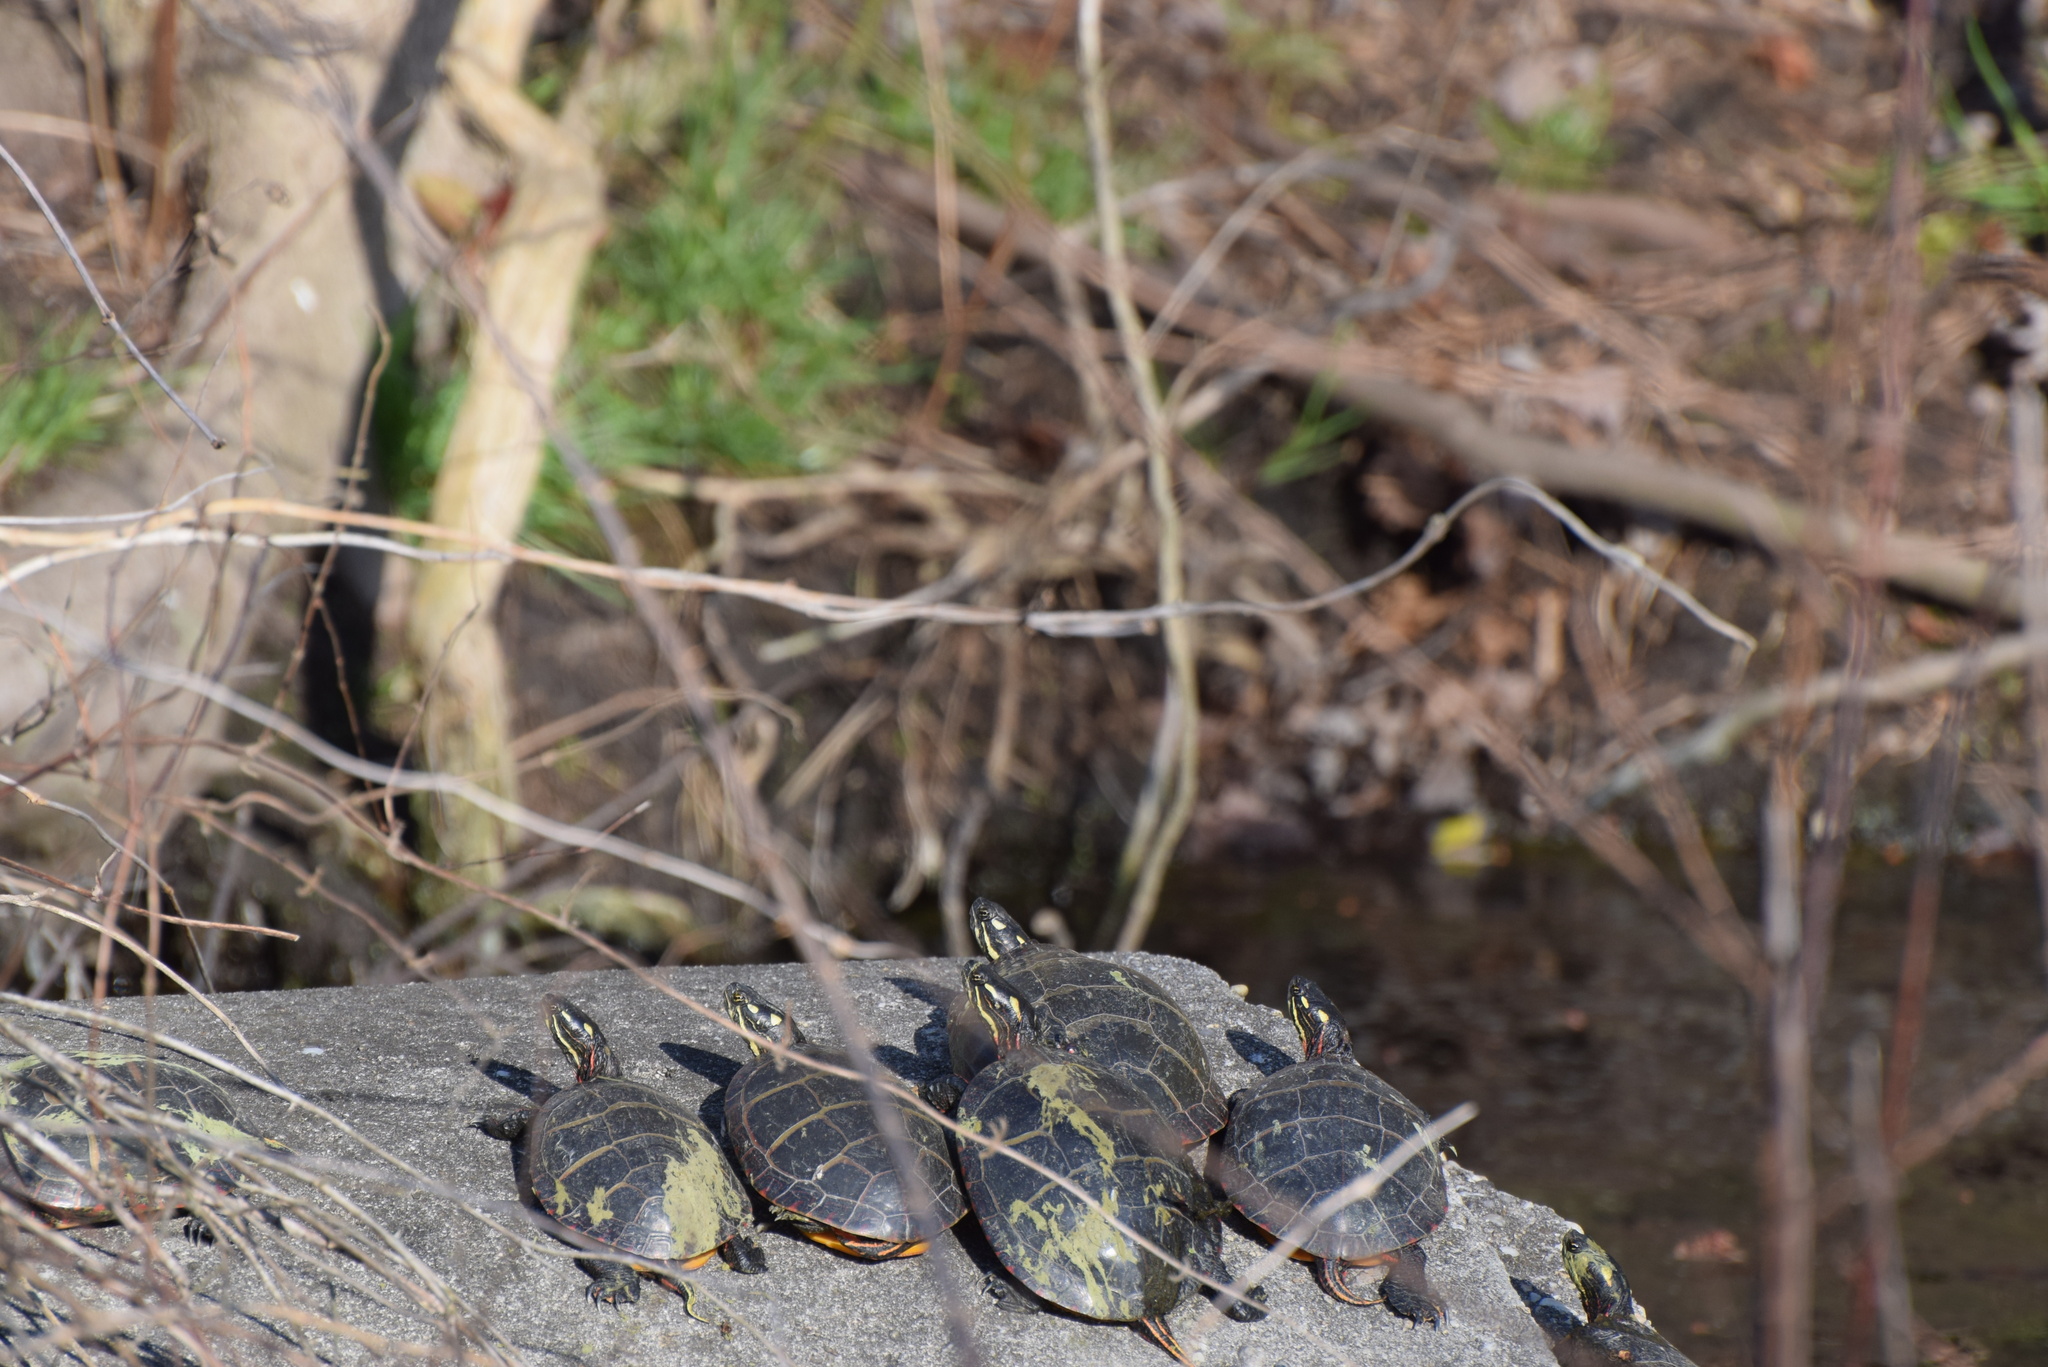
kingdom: Animalia
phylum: Chordata
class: Testudines
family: Emydidae
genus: Chrysemys
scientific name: Chrysemys picta
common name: Painted turtle
